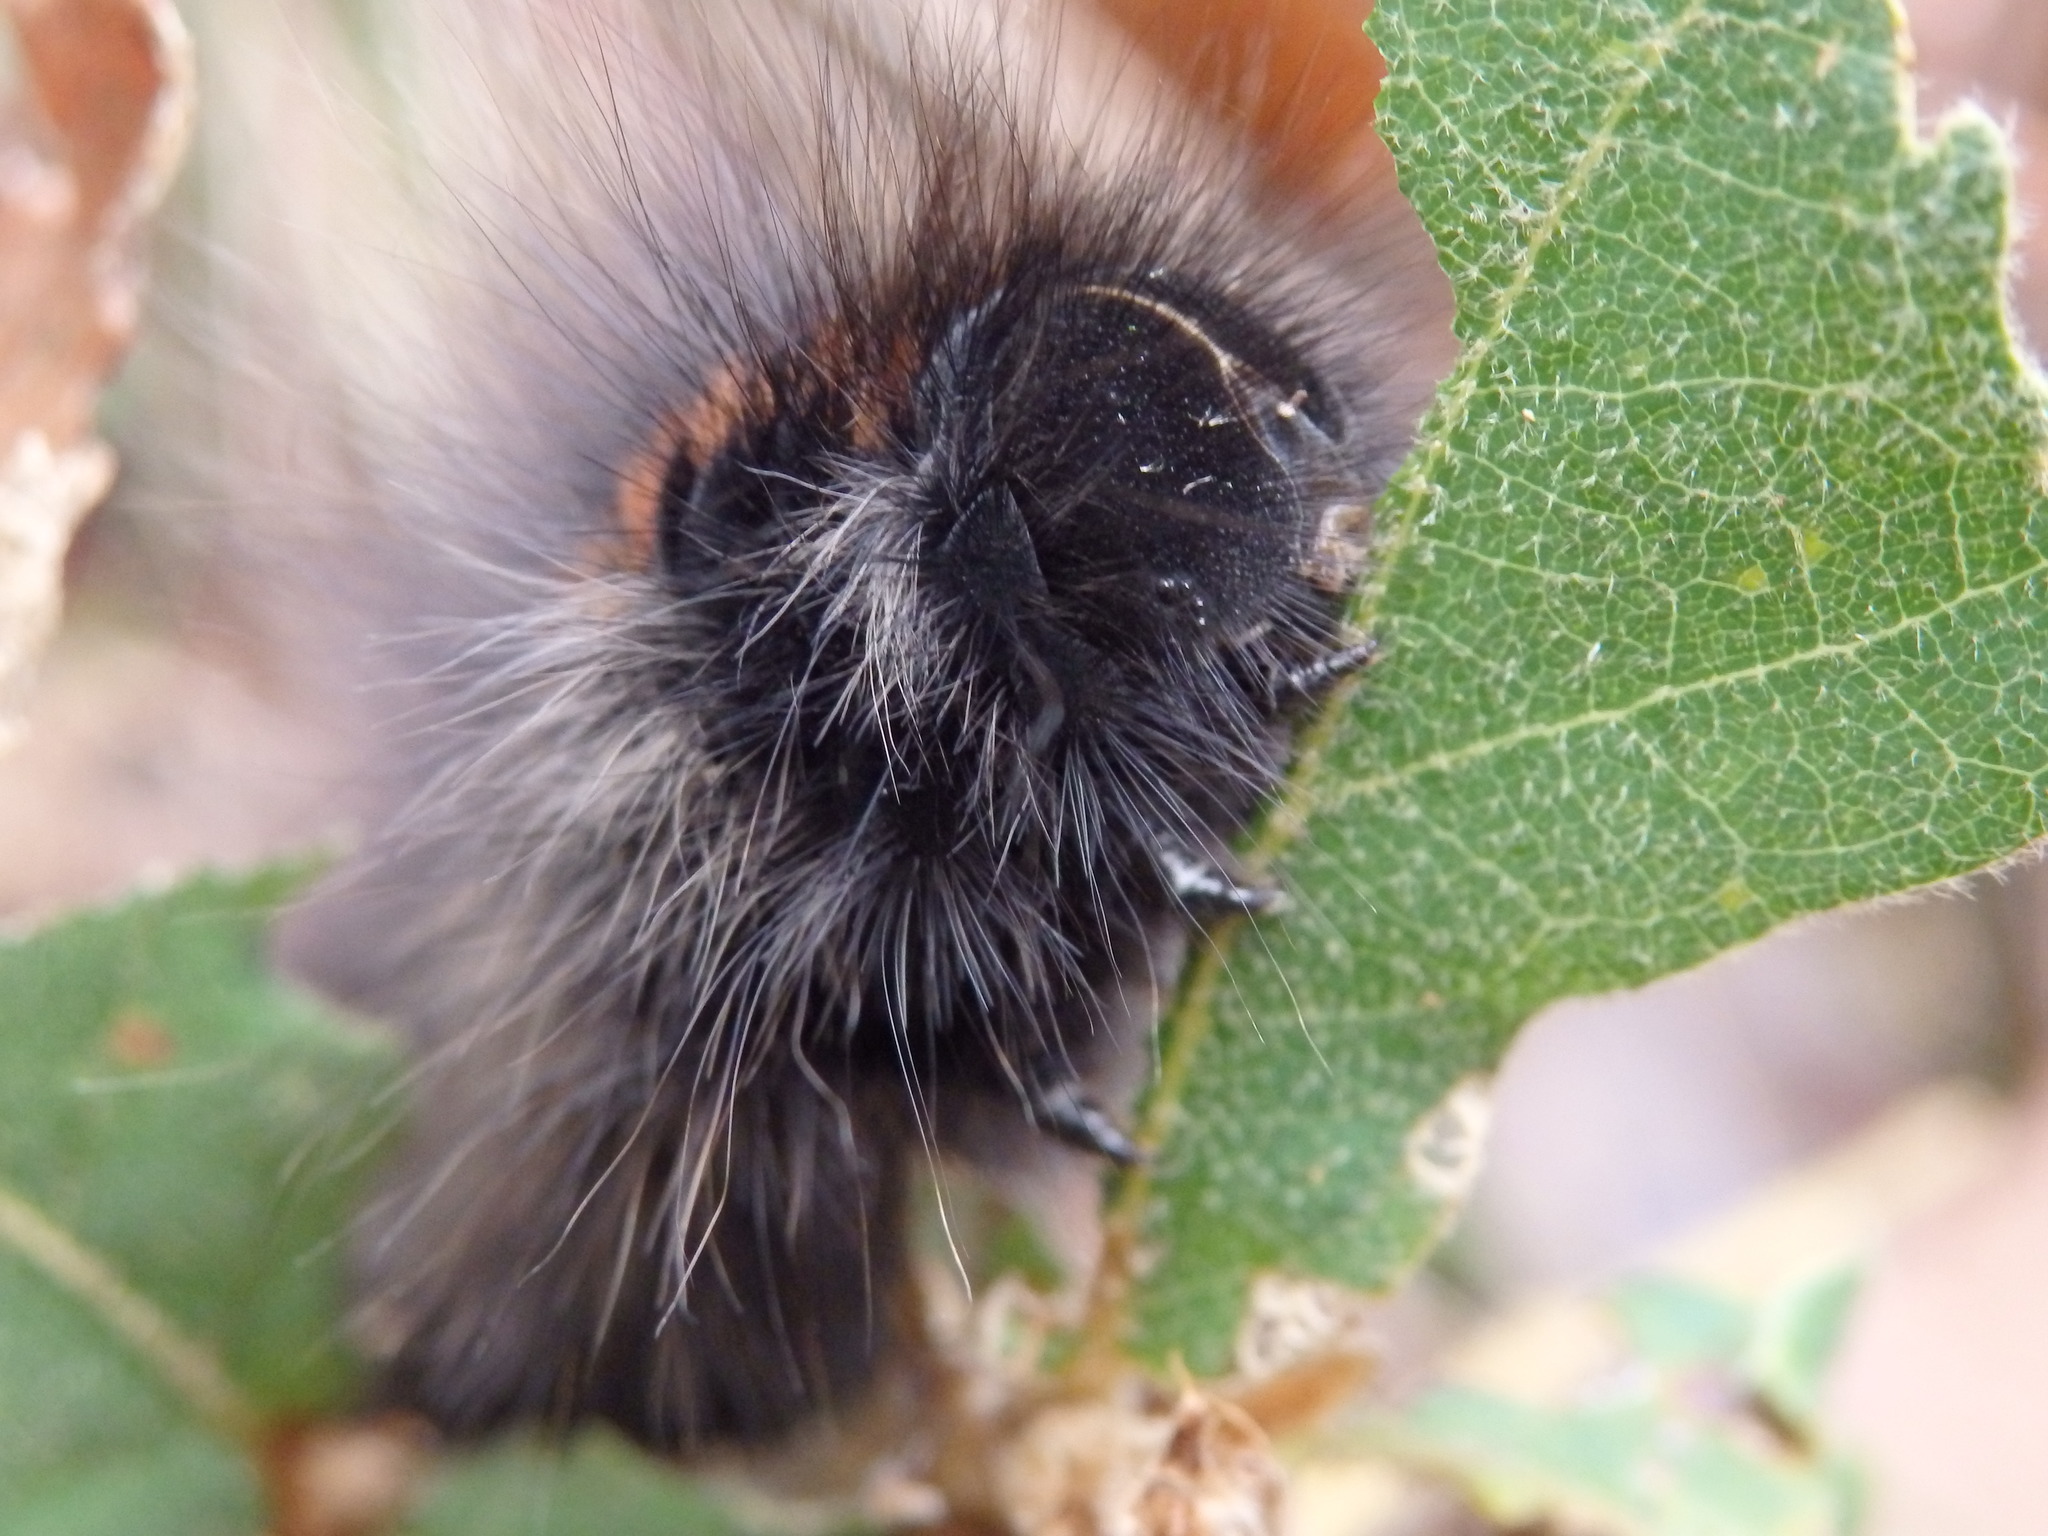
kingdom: Animalia
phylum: Arthropoda
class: Insecta
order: Lepidoptera
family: Lasiocampidae
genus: Macrothylacia
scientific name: Macrothylacia rubi
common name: Fox moth
